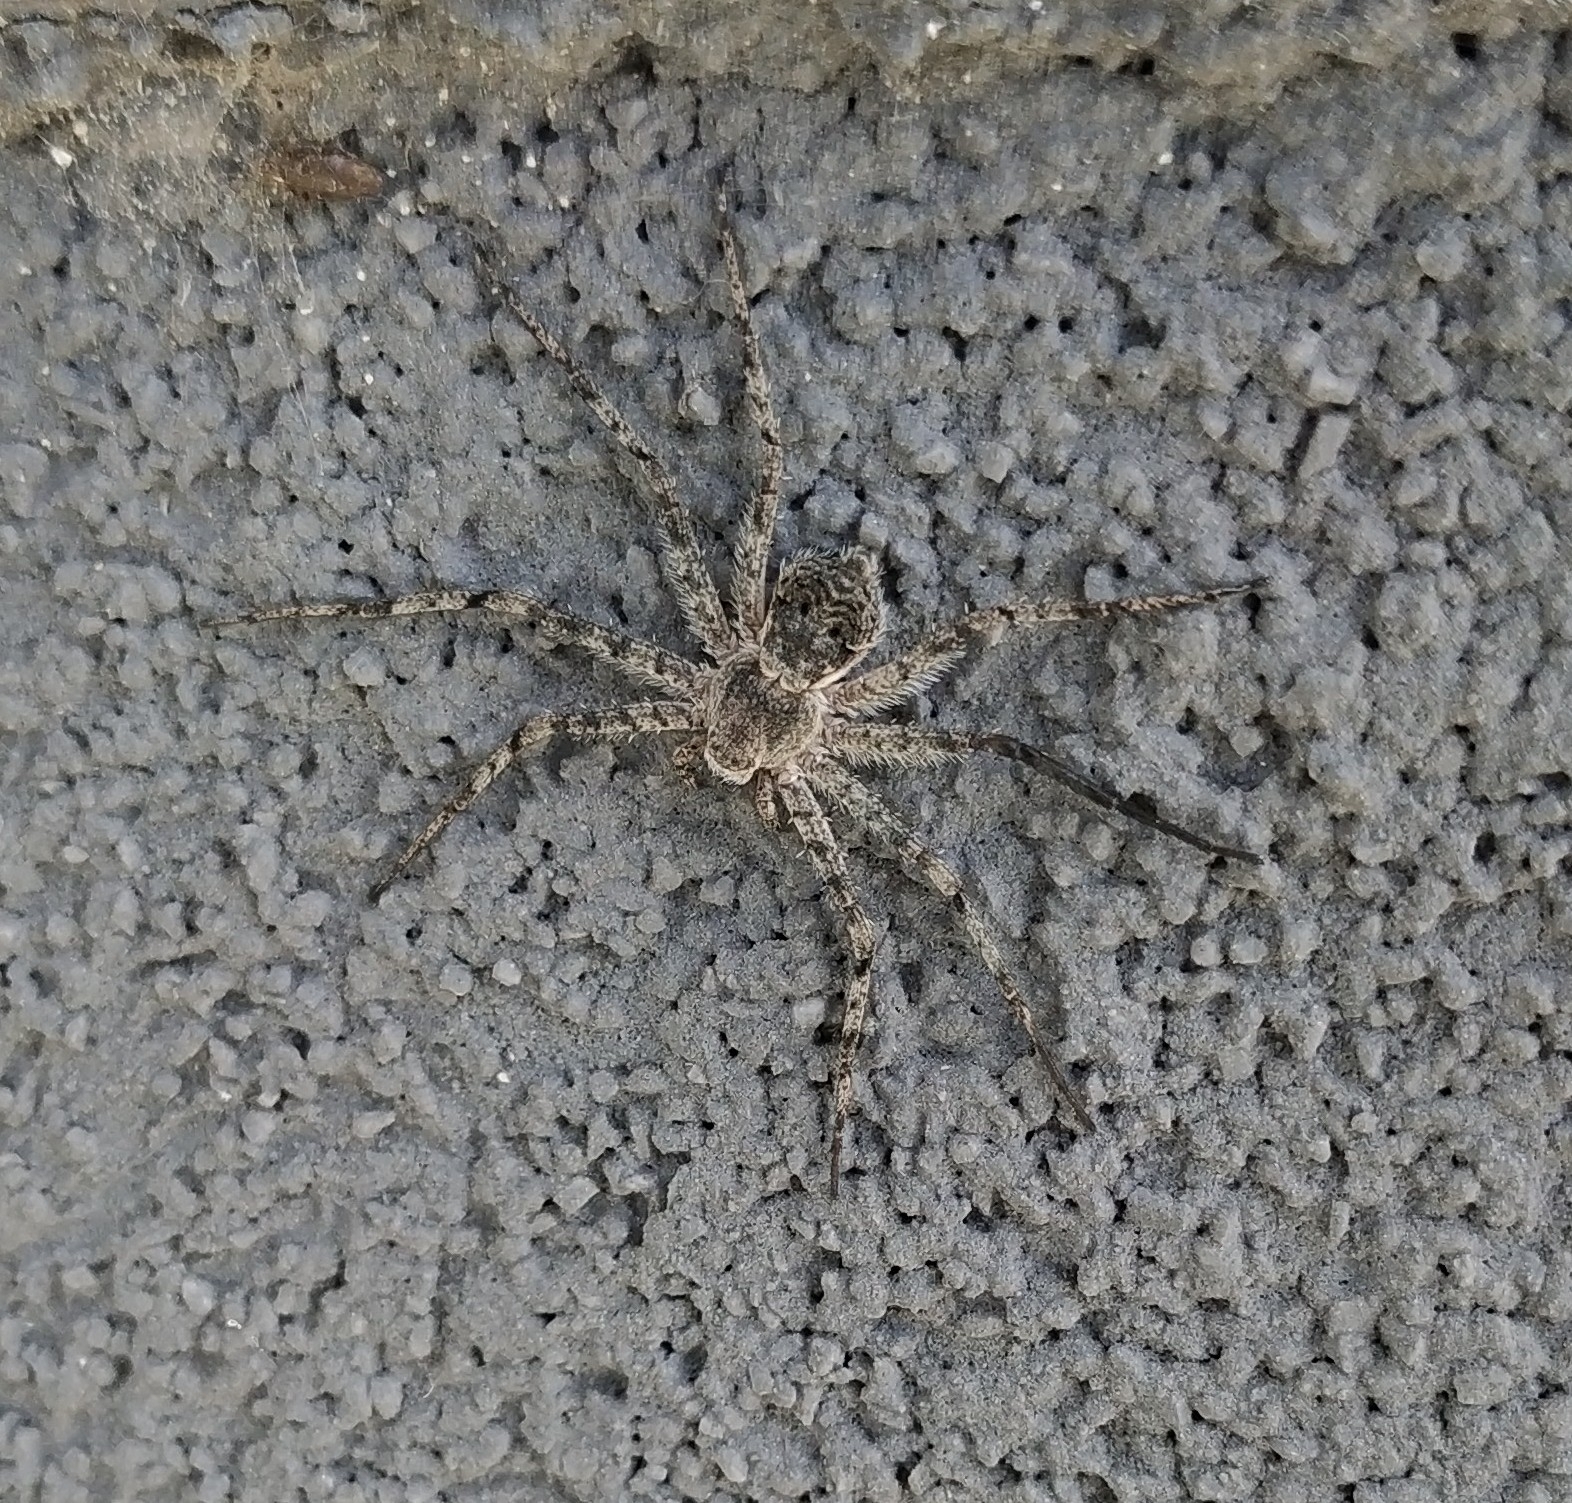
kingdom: Animalia
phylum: Arthropoda
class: Arachnida
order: Araneae
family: Philodromidae
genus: Philodromus
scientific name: Philodromus margaritatus
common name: Lichen running-spider
